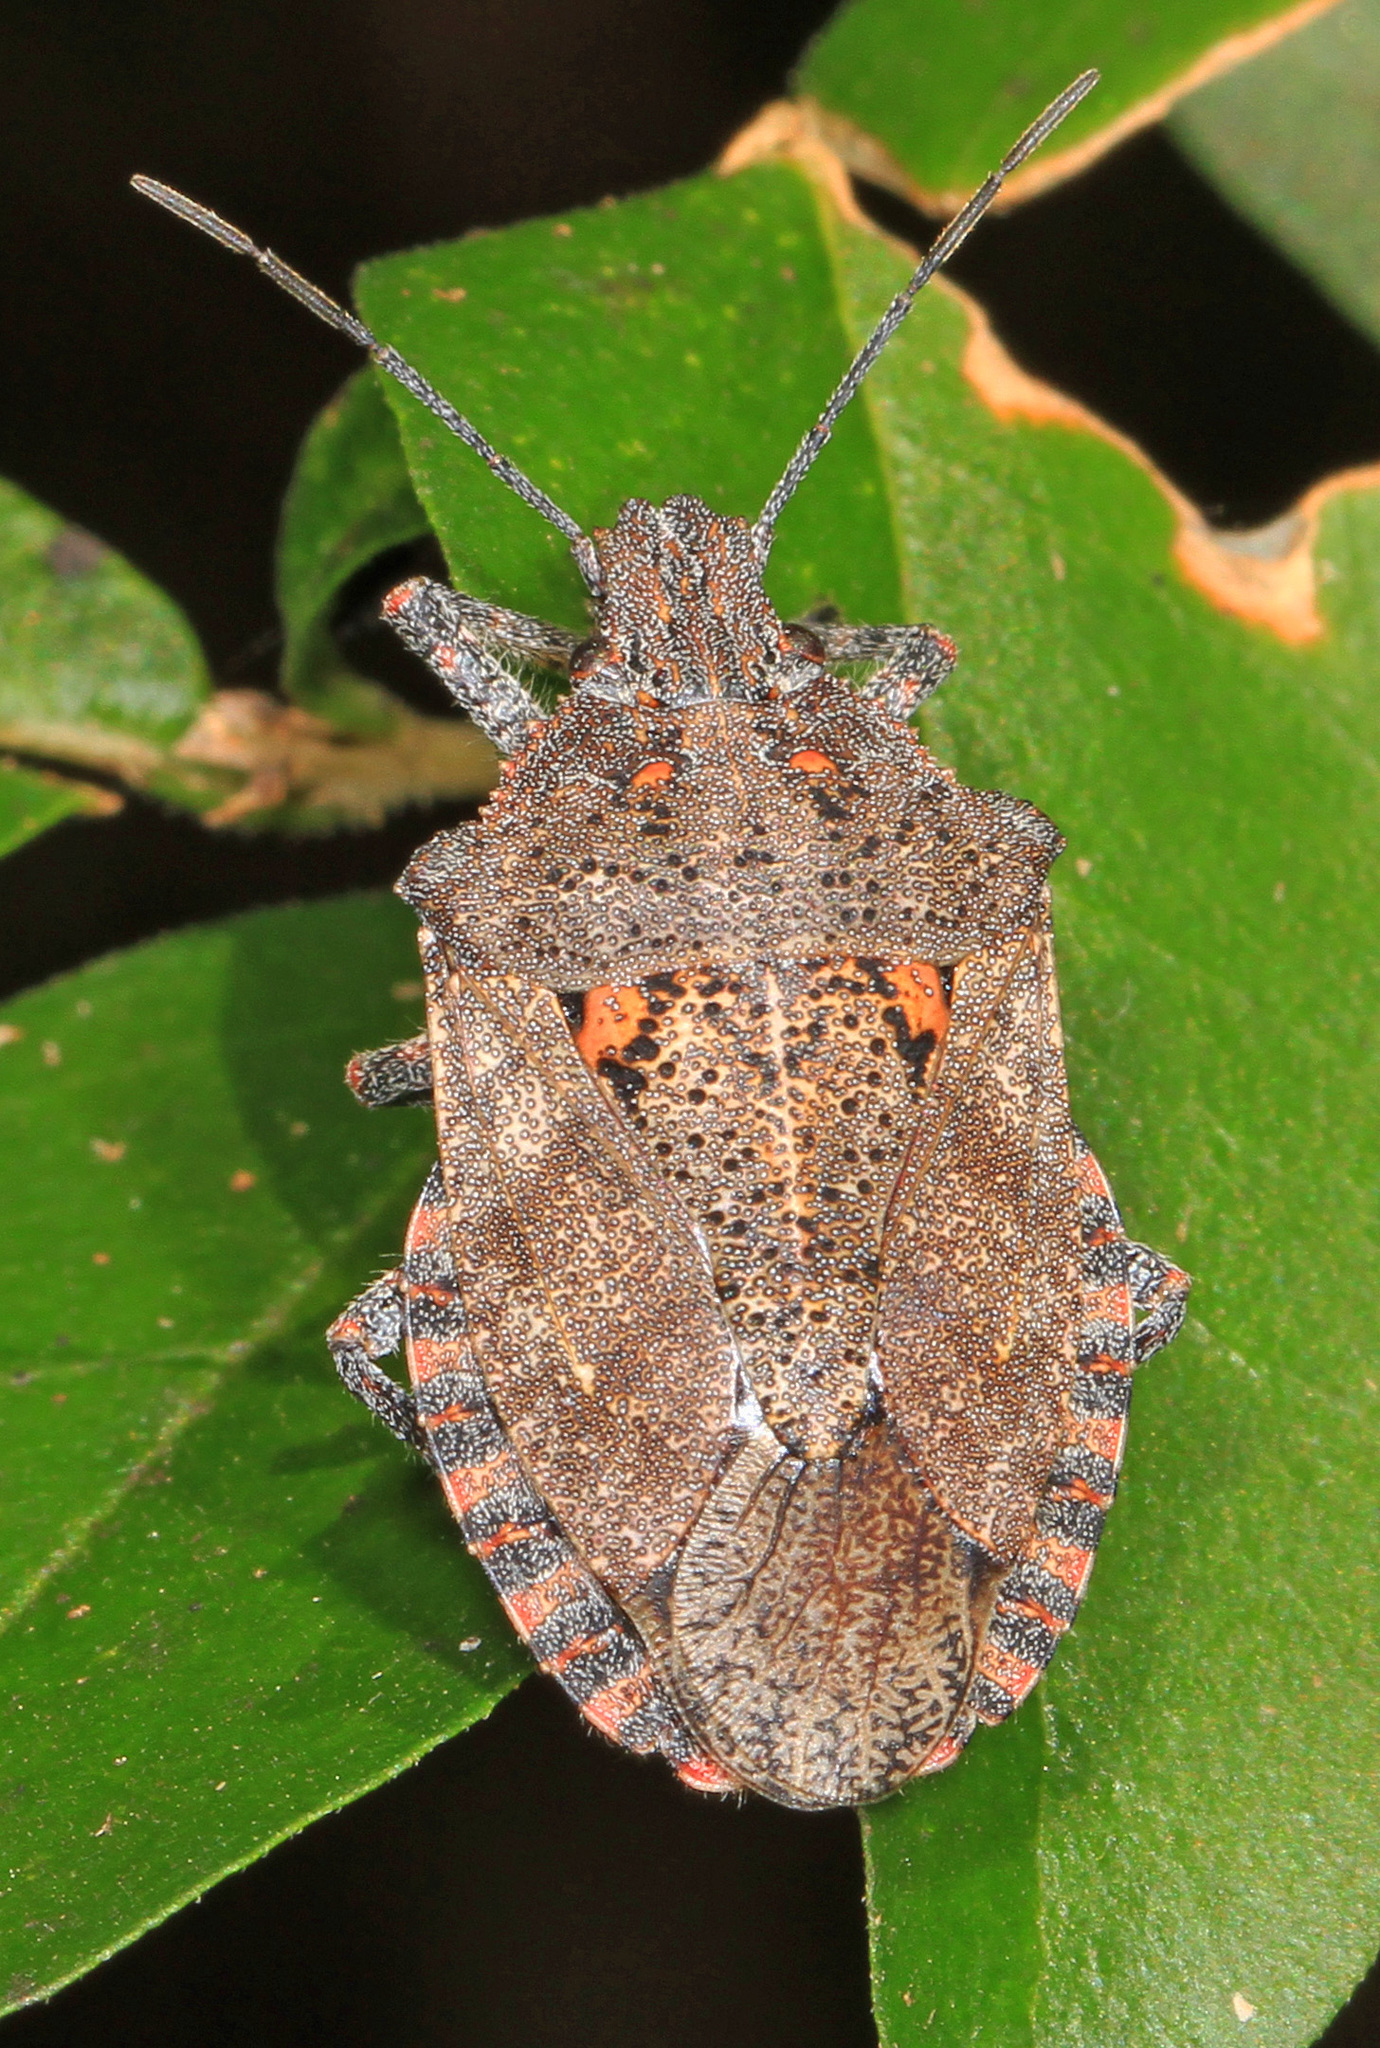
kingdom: Animalia
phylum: Arthropoda
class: Insecta
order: Hemiptera
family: Pentatomidae
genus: Brochymena
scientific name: Brochymena quadripustulata
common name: Four-humped stink bug
